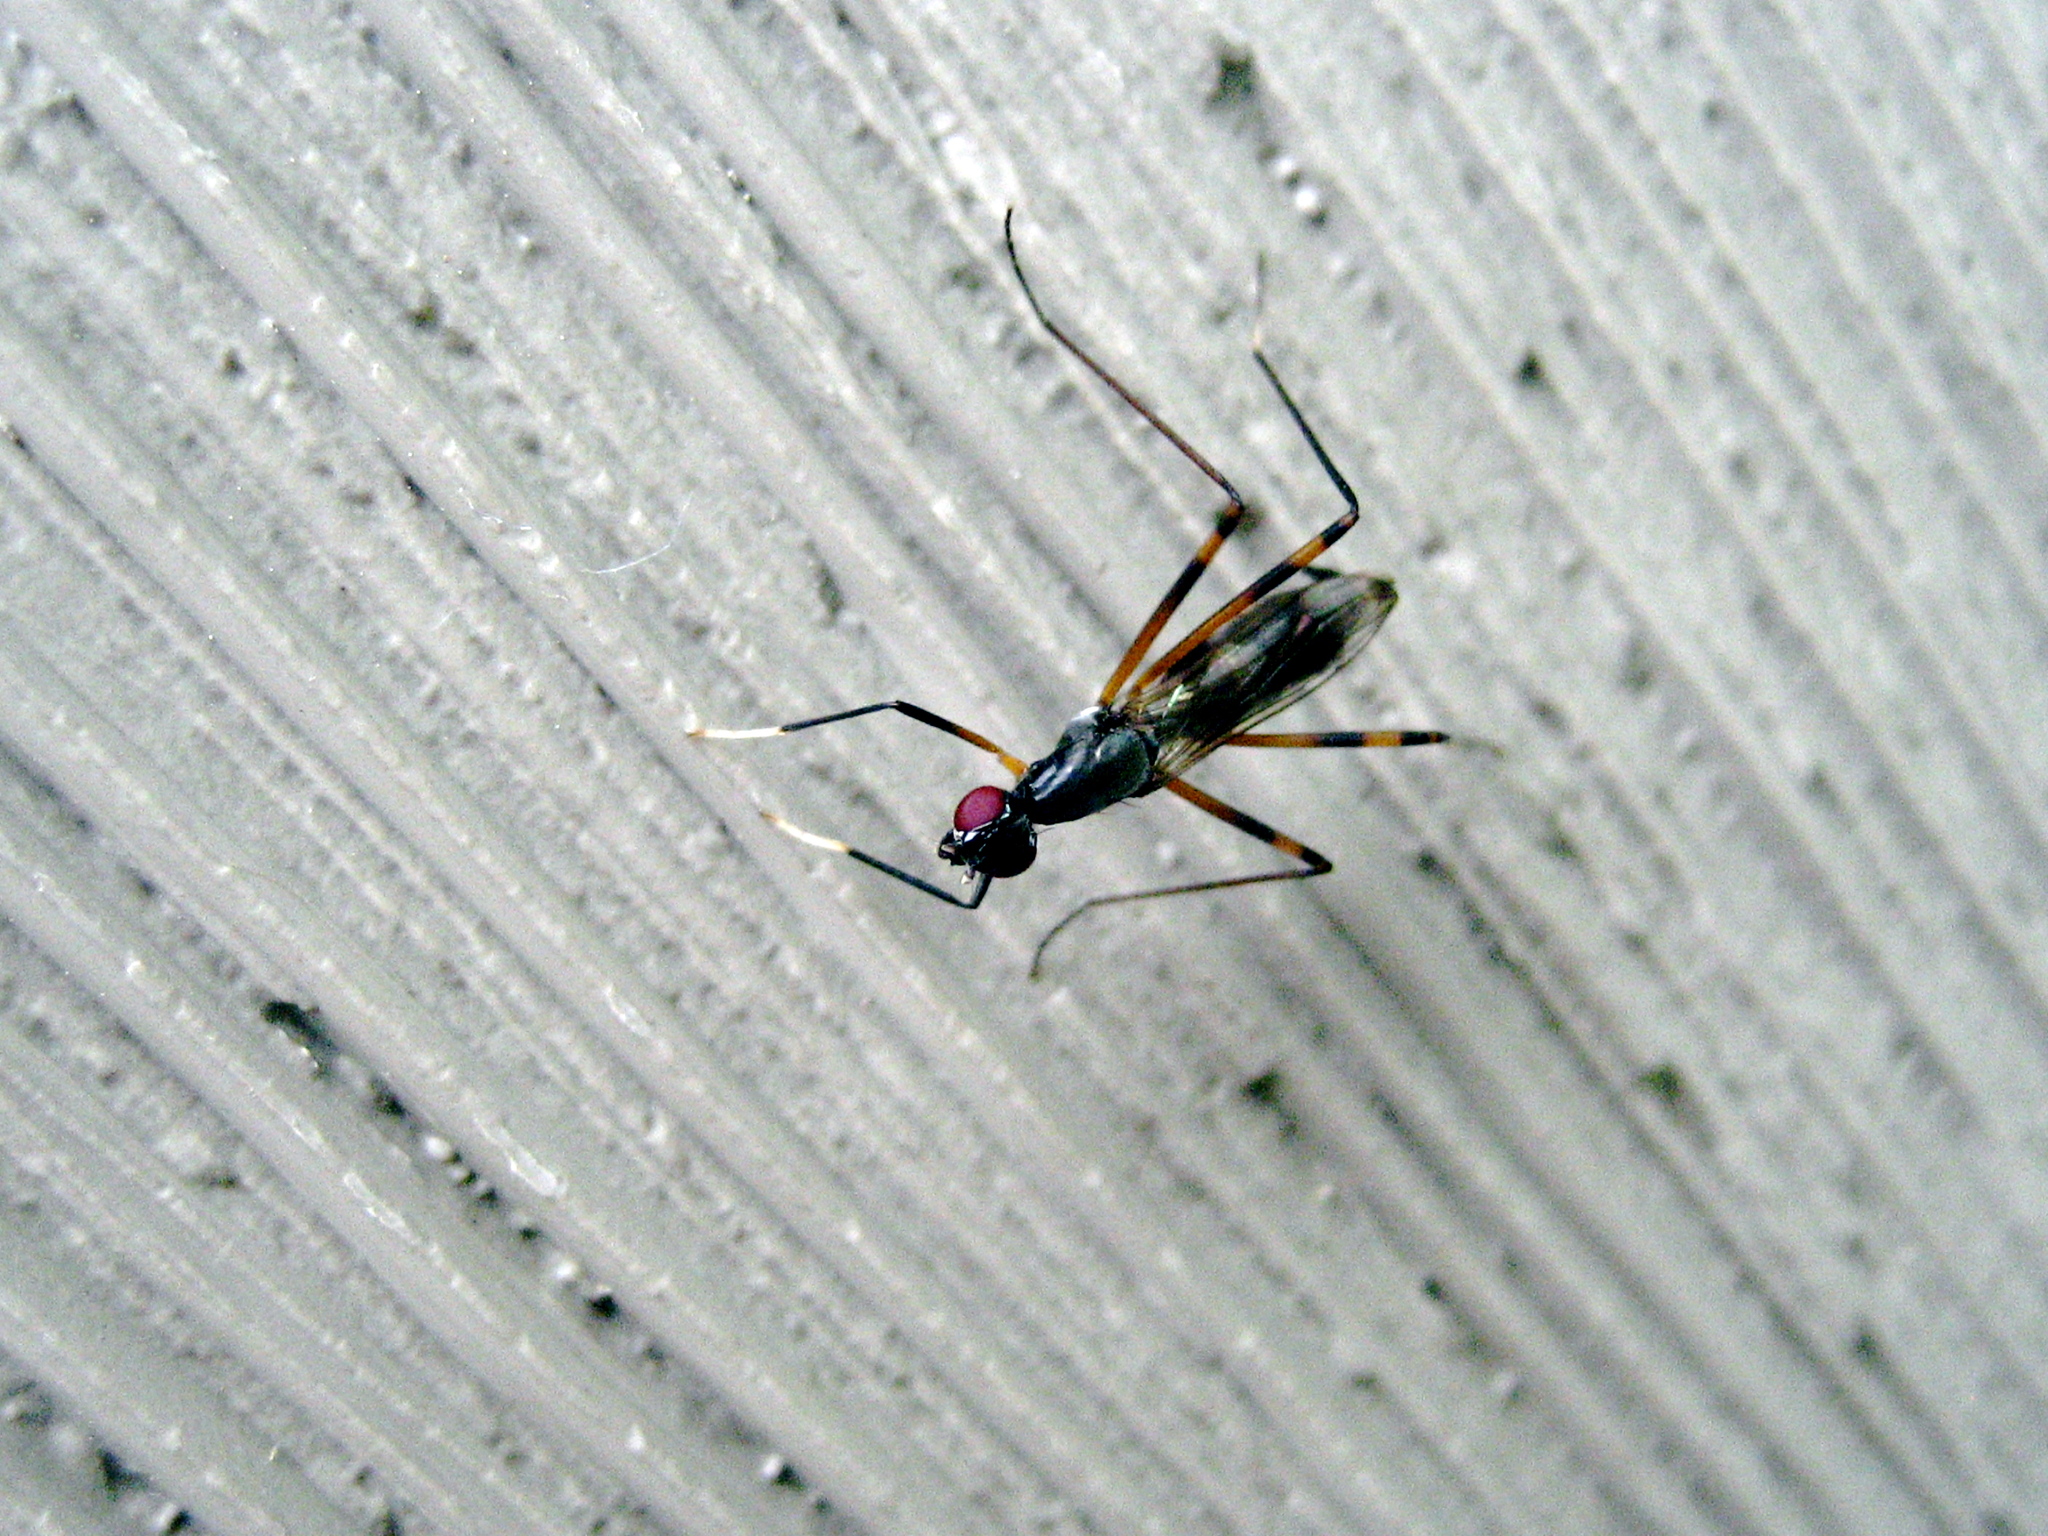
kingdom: Animalia
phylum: Arthropoda
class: Insecta
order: Diptera
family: Micropezidae
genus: Rainieria
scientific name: Rainieria antennaepes
